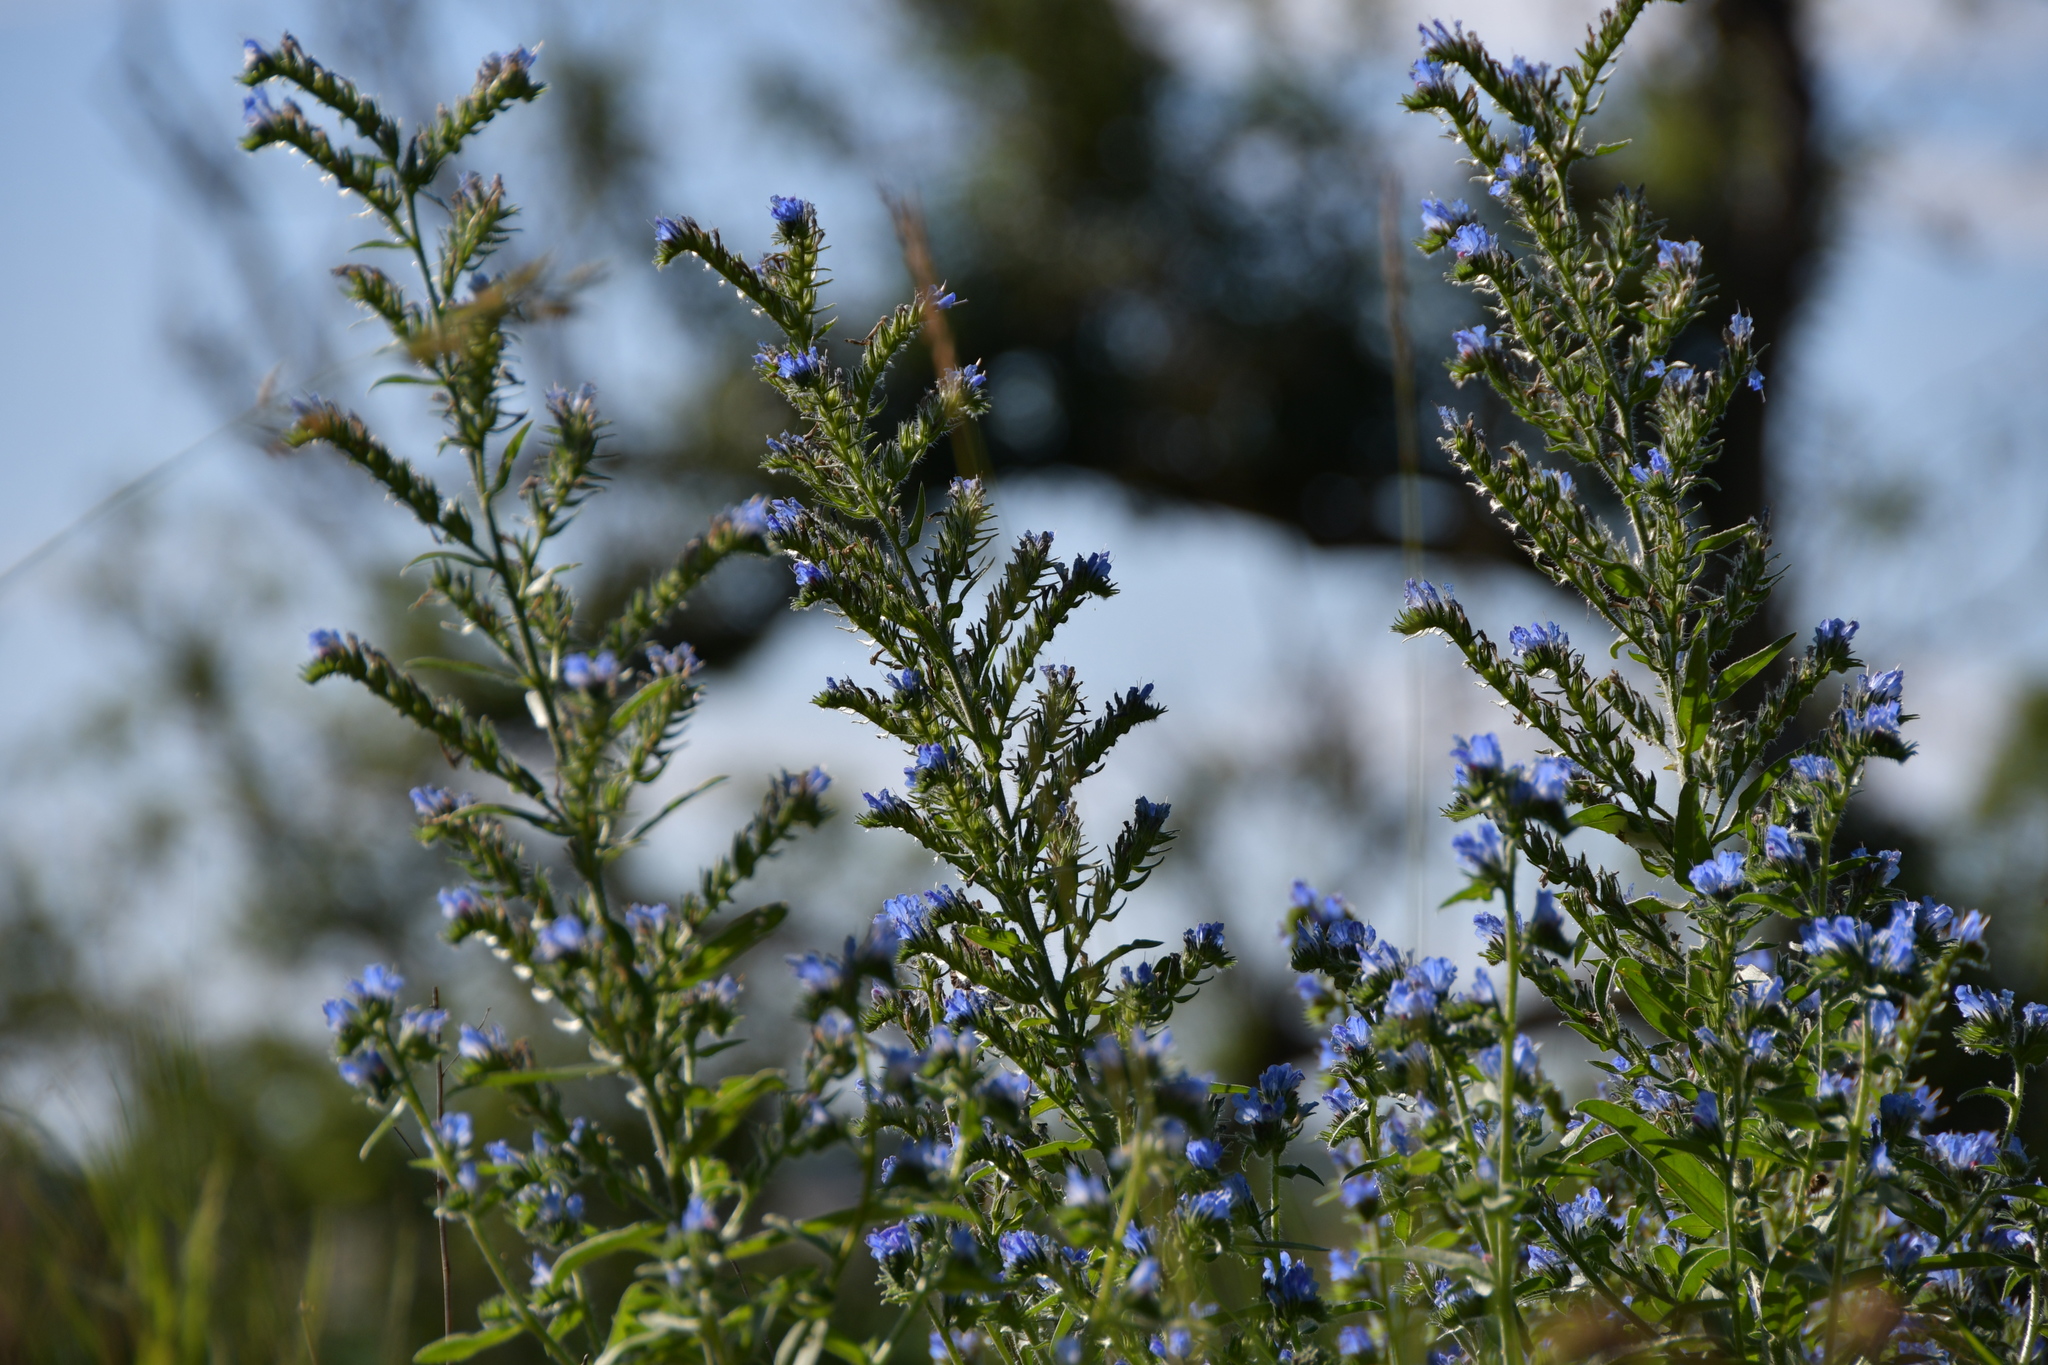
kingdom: Plantae
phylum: Tracheophyta
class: Magnoliopsida
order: Boraginales
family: Boraginaceae
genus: Echium
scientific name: Echium vulgare
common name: Common viper's bugloss
